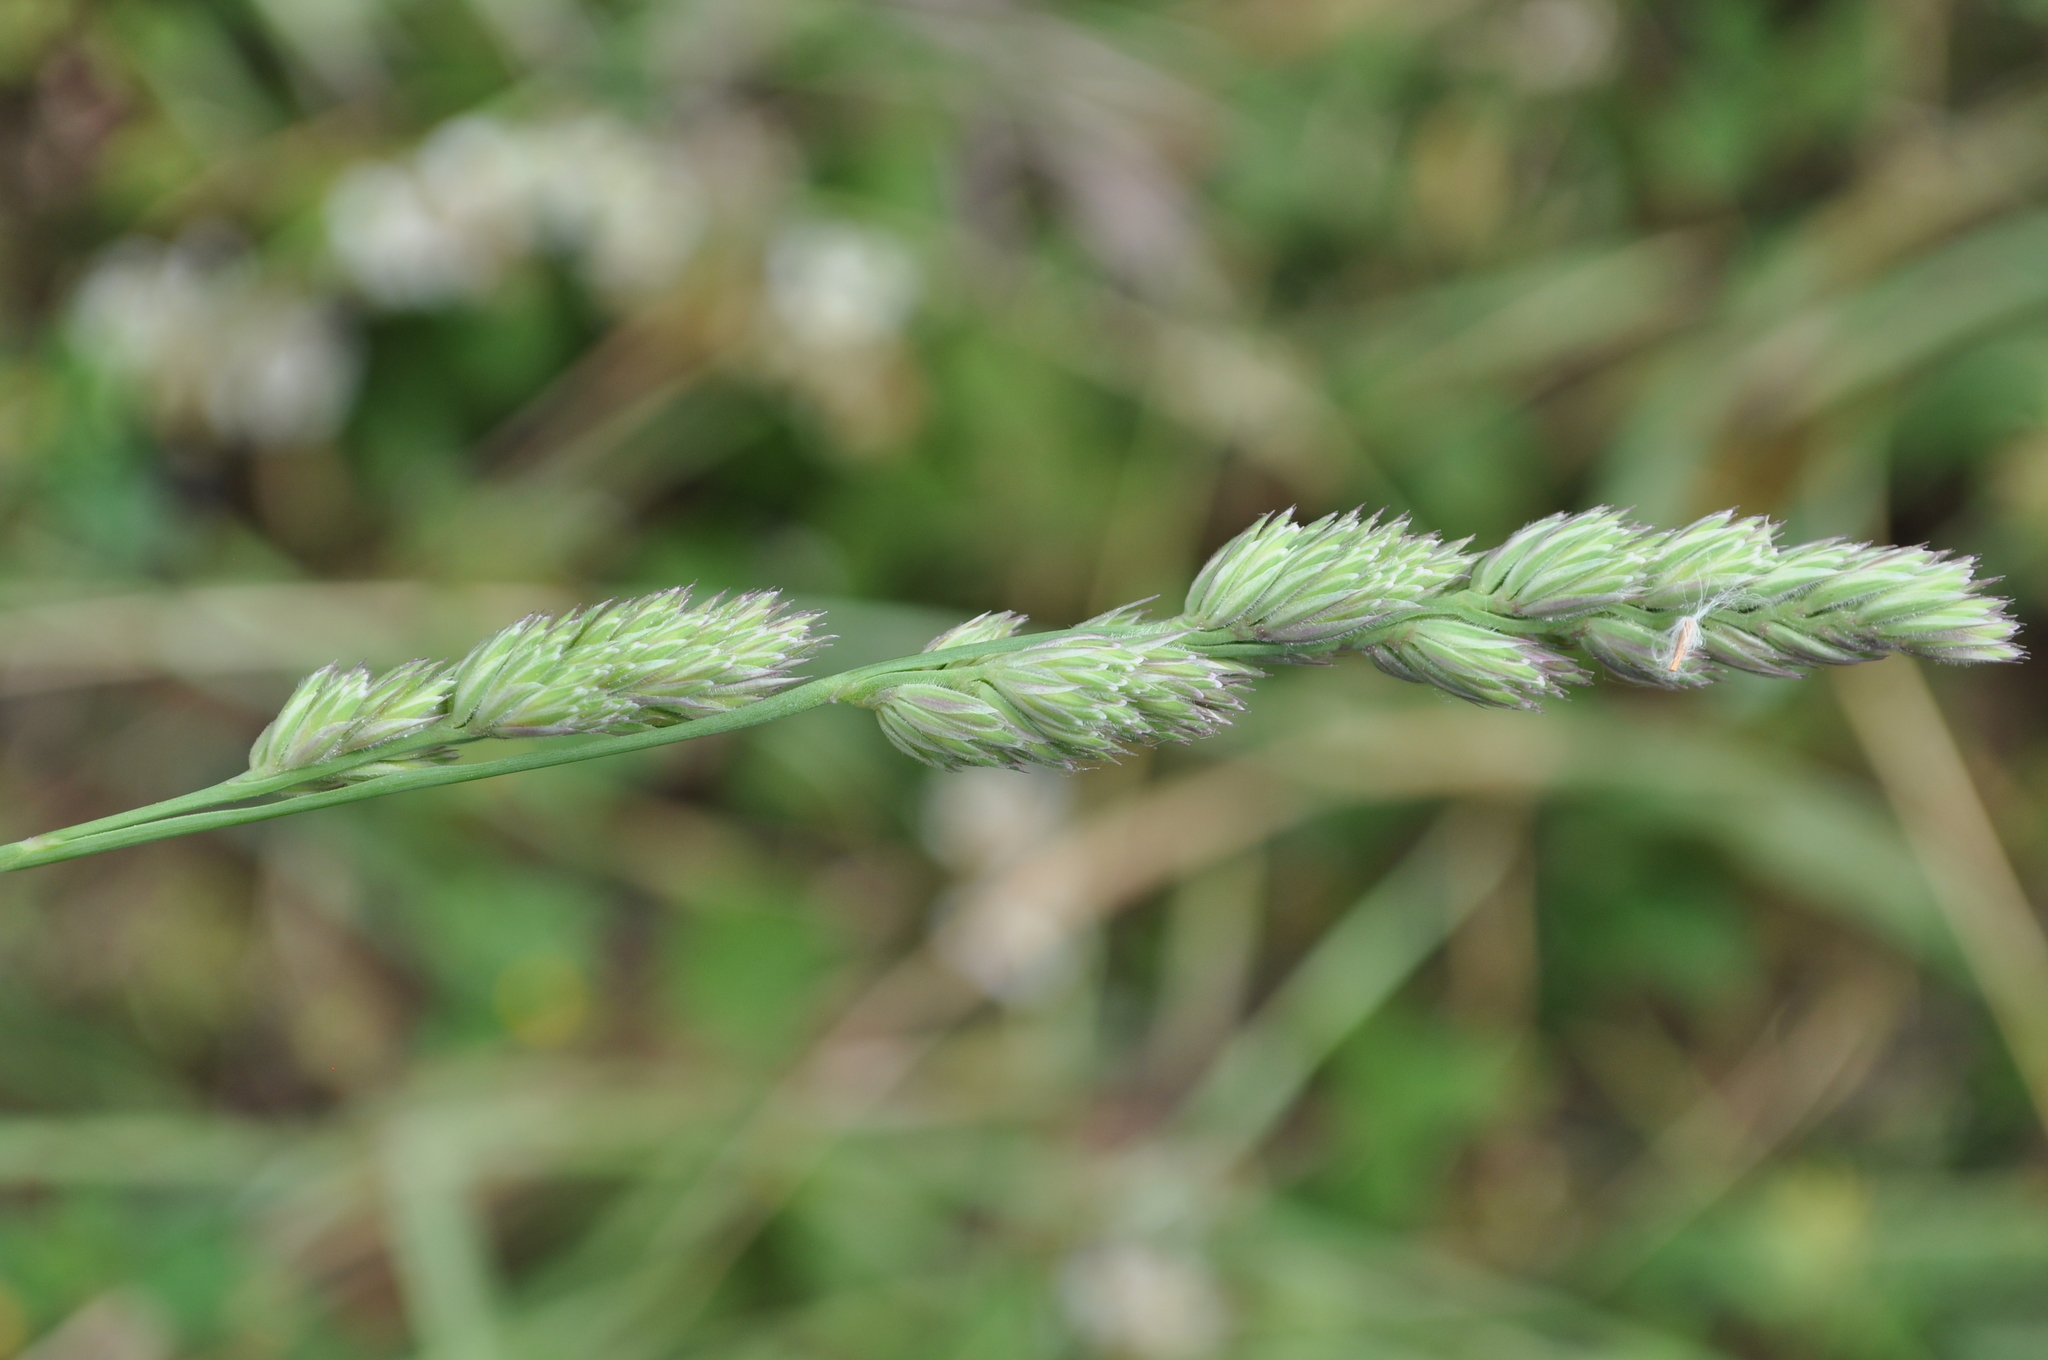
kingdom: Plantae
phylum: Tracheophyta
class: Liliopsida
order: Poales
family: Poaceae
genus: Dactylis
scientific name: Dactylis glomerata
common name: Orchardgrass
